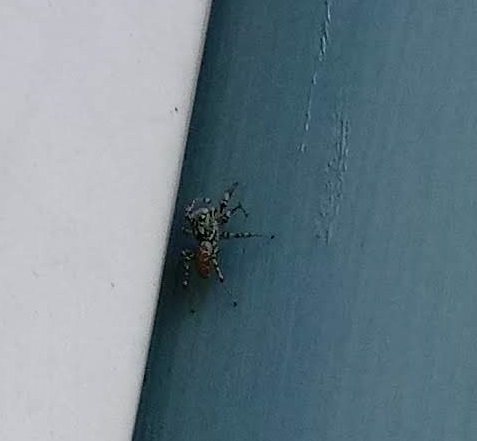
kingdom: Animalia
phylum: Arthropoda
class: Arachnida
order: Araneae
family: Salticidae
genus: Maevia
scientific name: Maevia inclemens
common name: Dimorphic jumper
